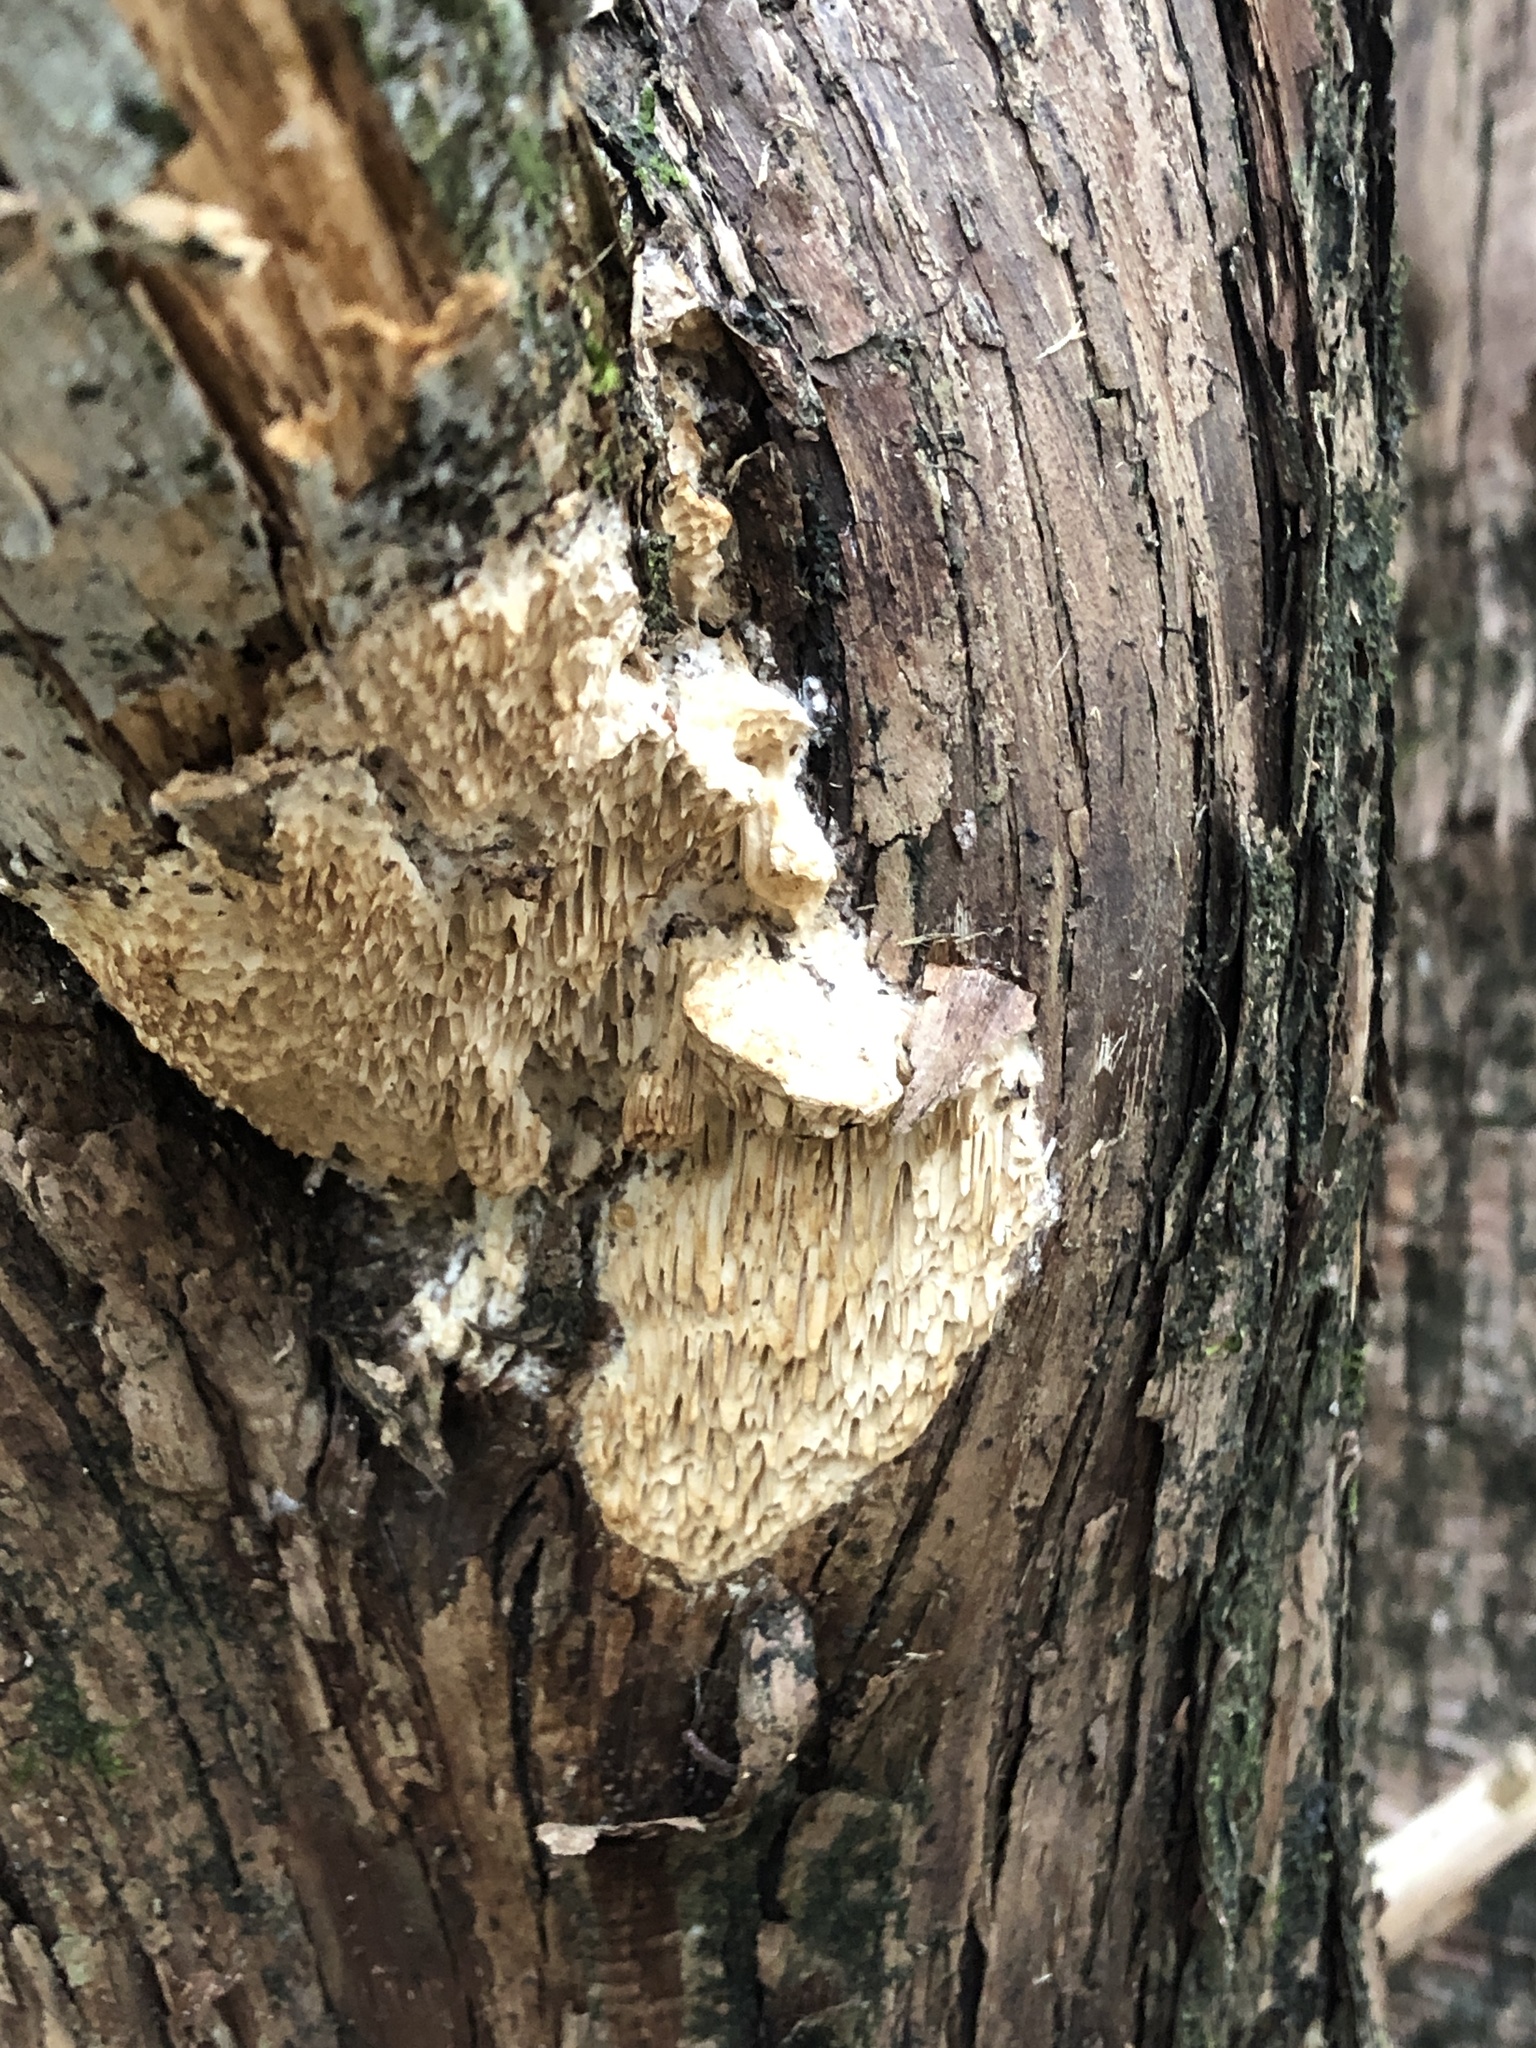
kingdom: Fungi
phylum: Basidiomycota
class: Agaricomycetes
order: Polyporales
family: Fomitopsidaceae
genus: Fomitopsis
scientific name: Fomitopsis
